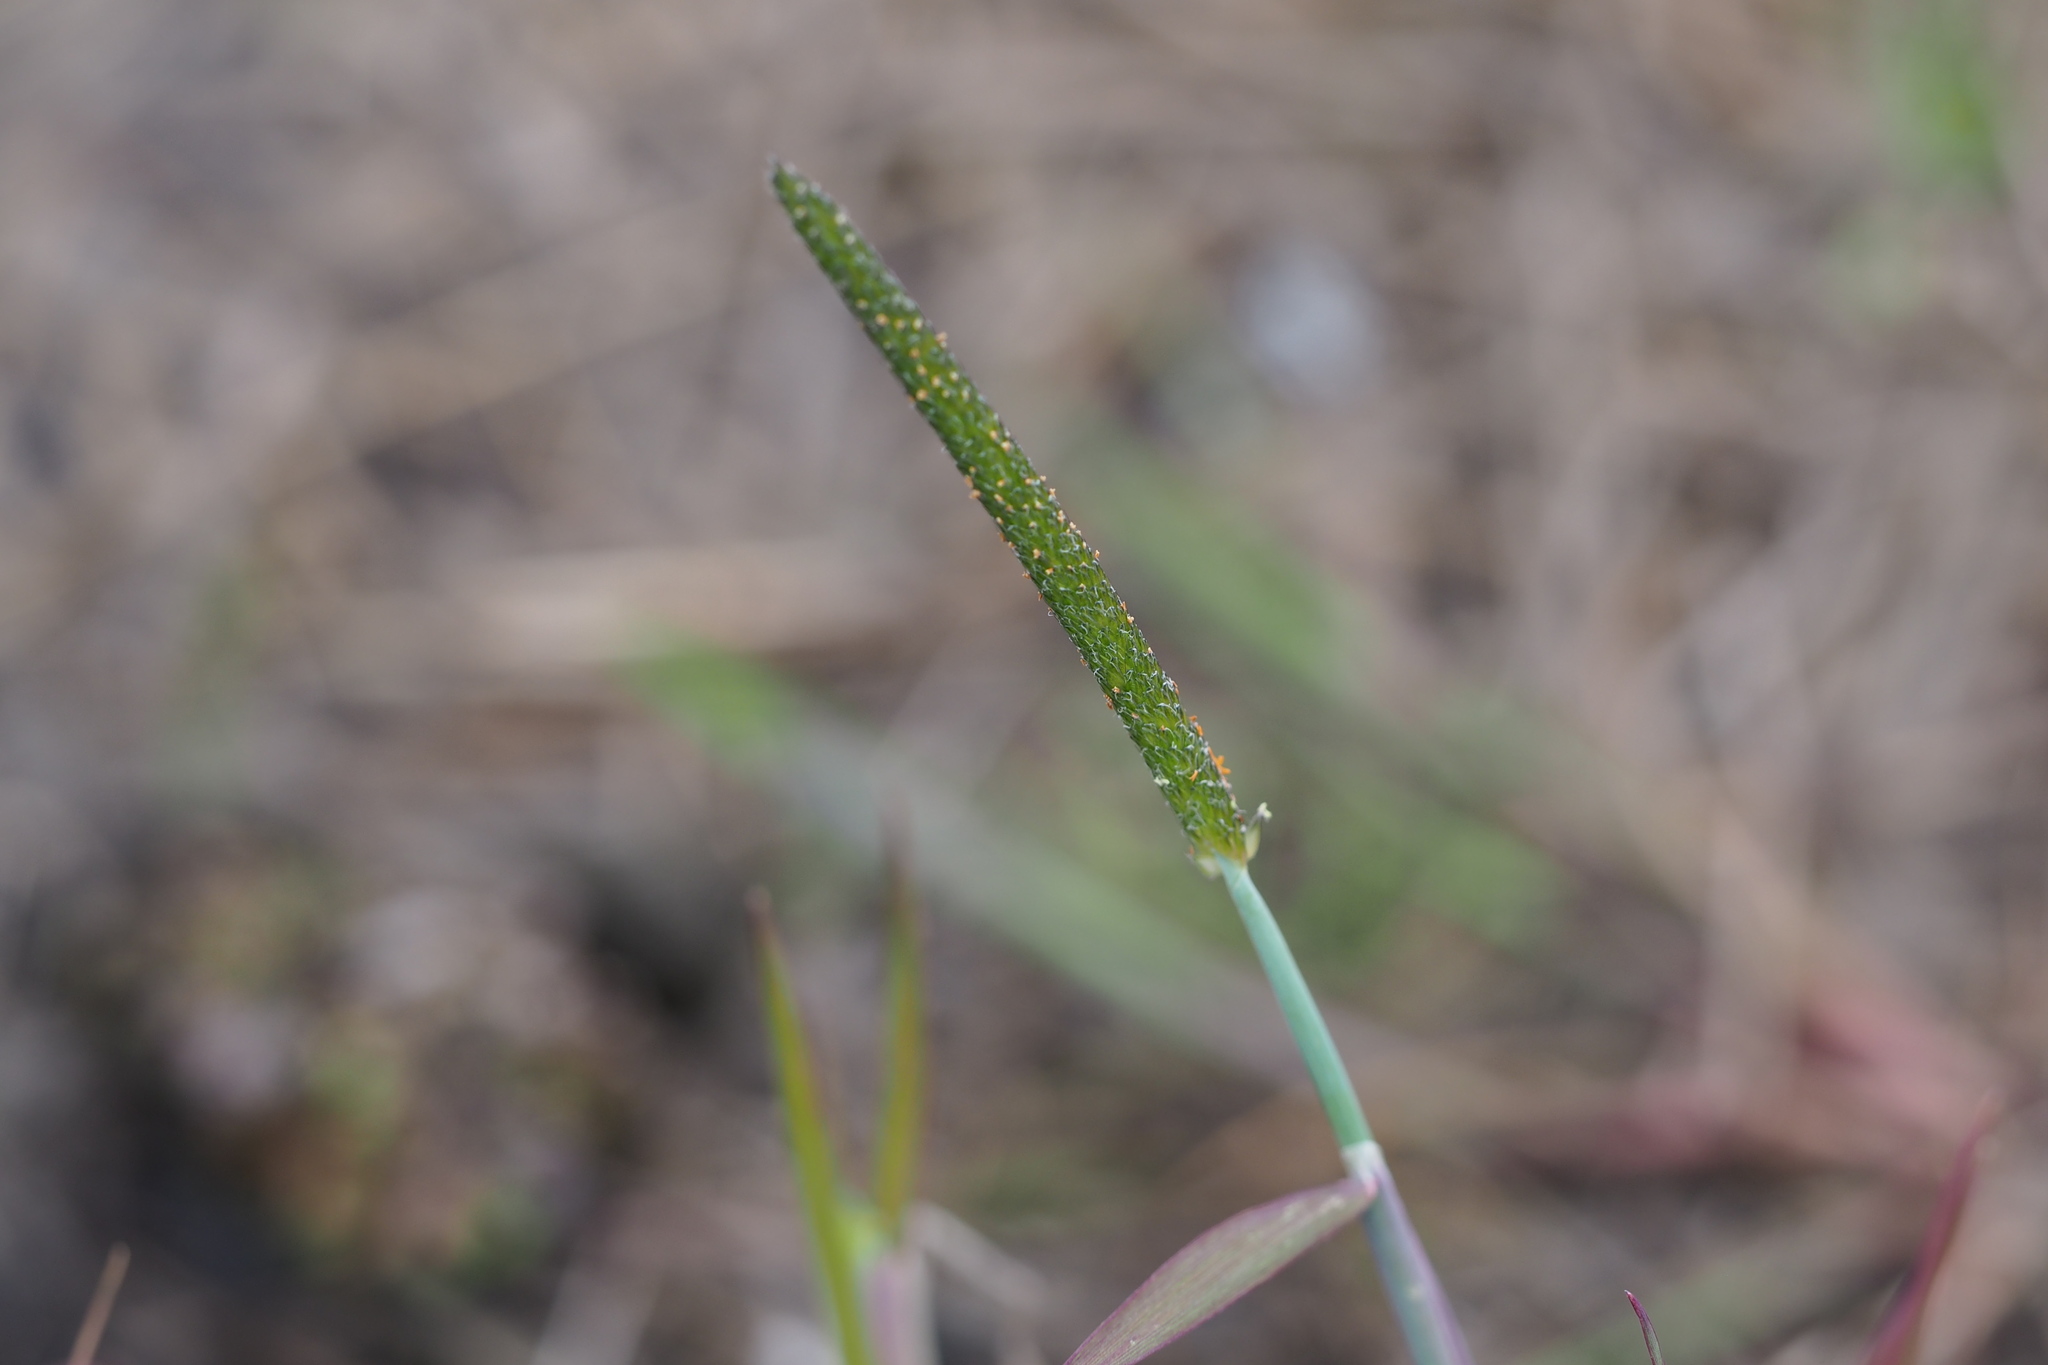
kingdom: Plantae
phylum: Tracheophyta
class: Liliopsida
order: Poales
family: Poaceae
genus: Alopecurus
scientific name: Alopecurus aequalis
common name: Orange foxtail
